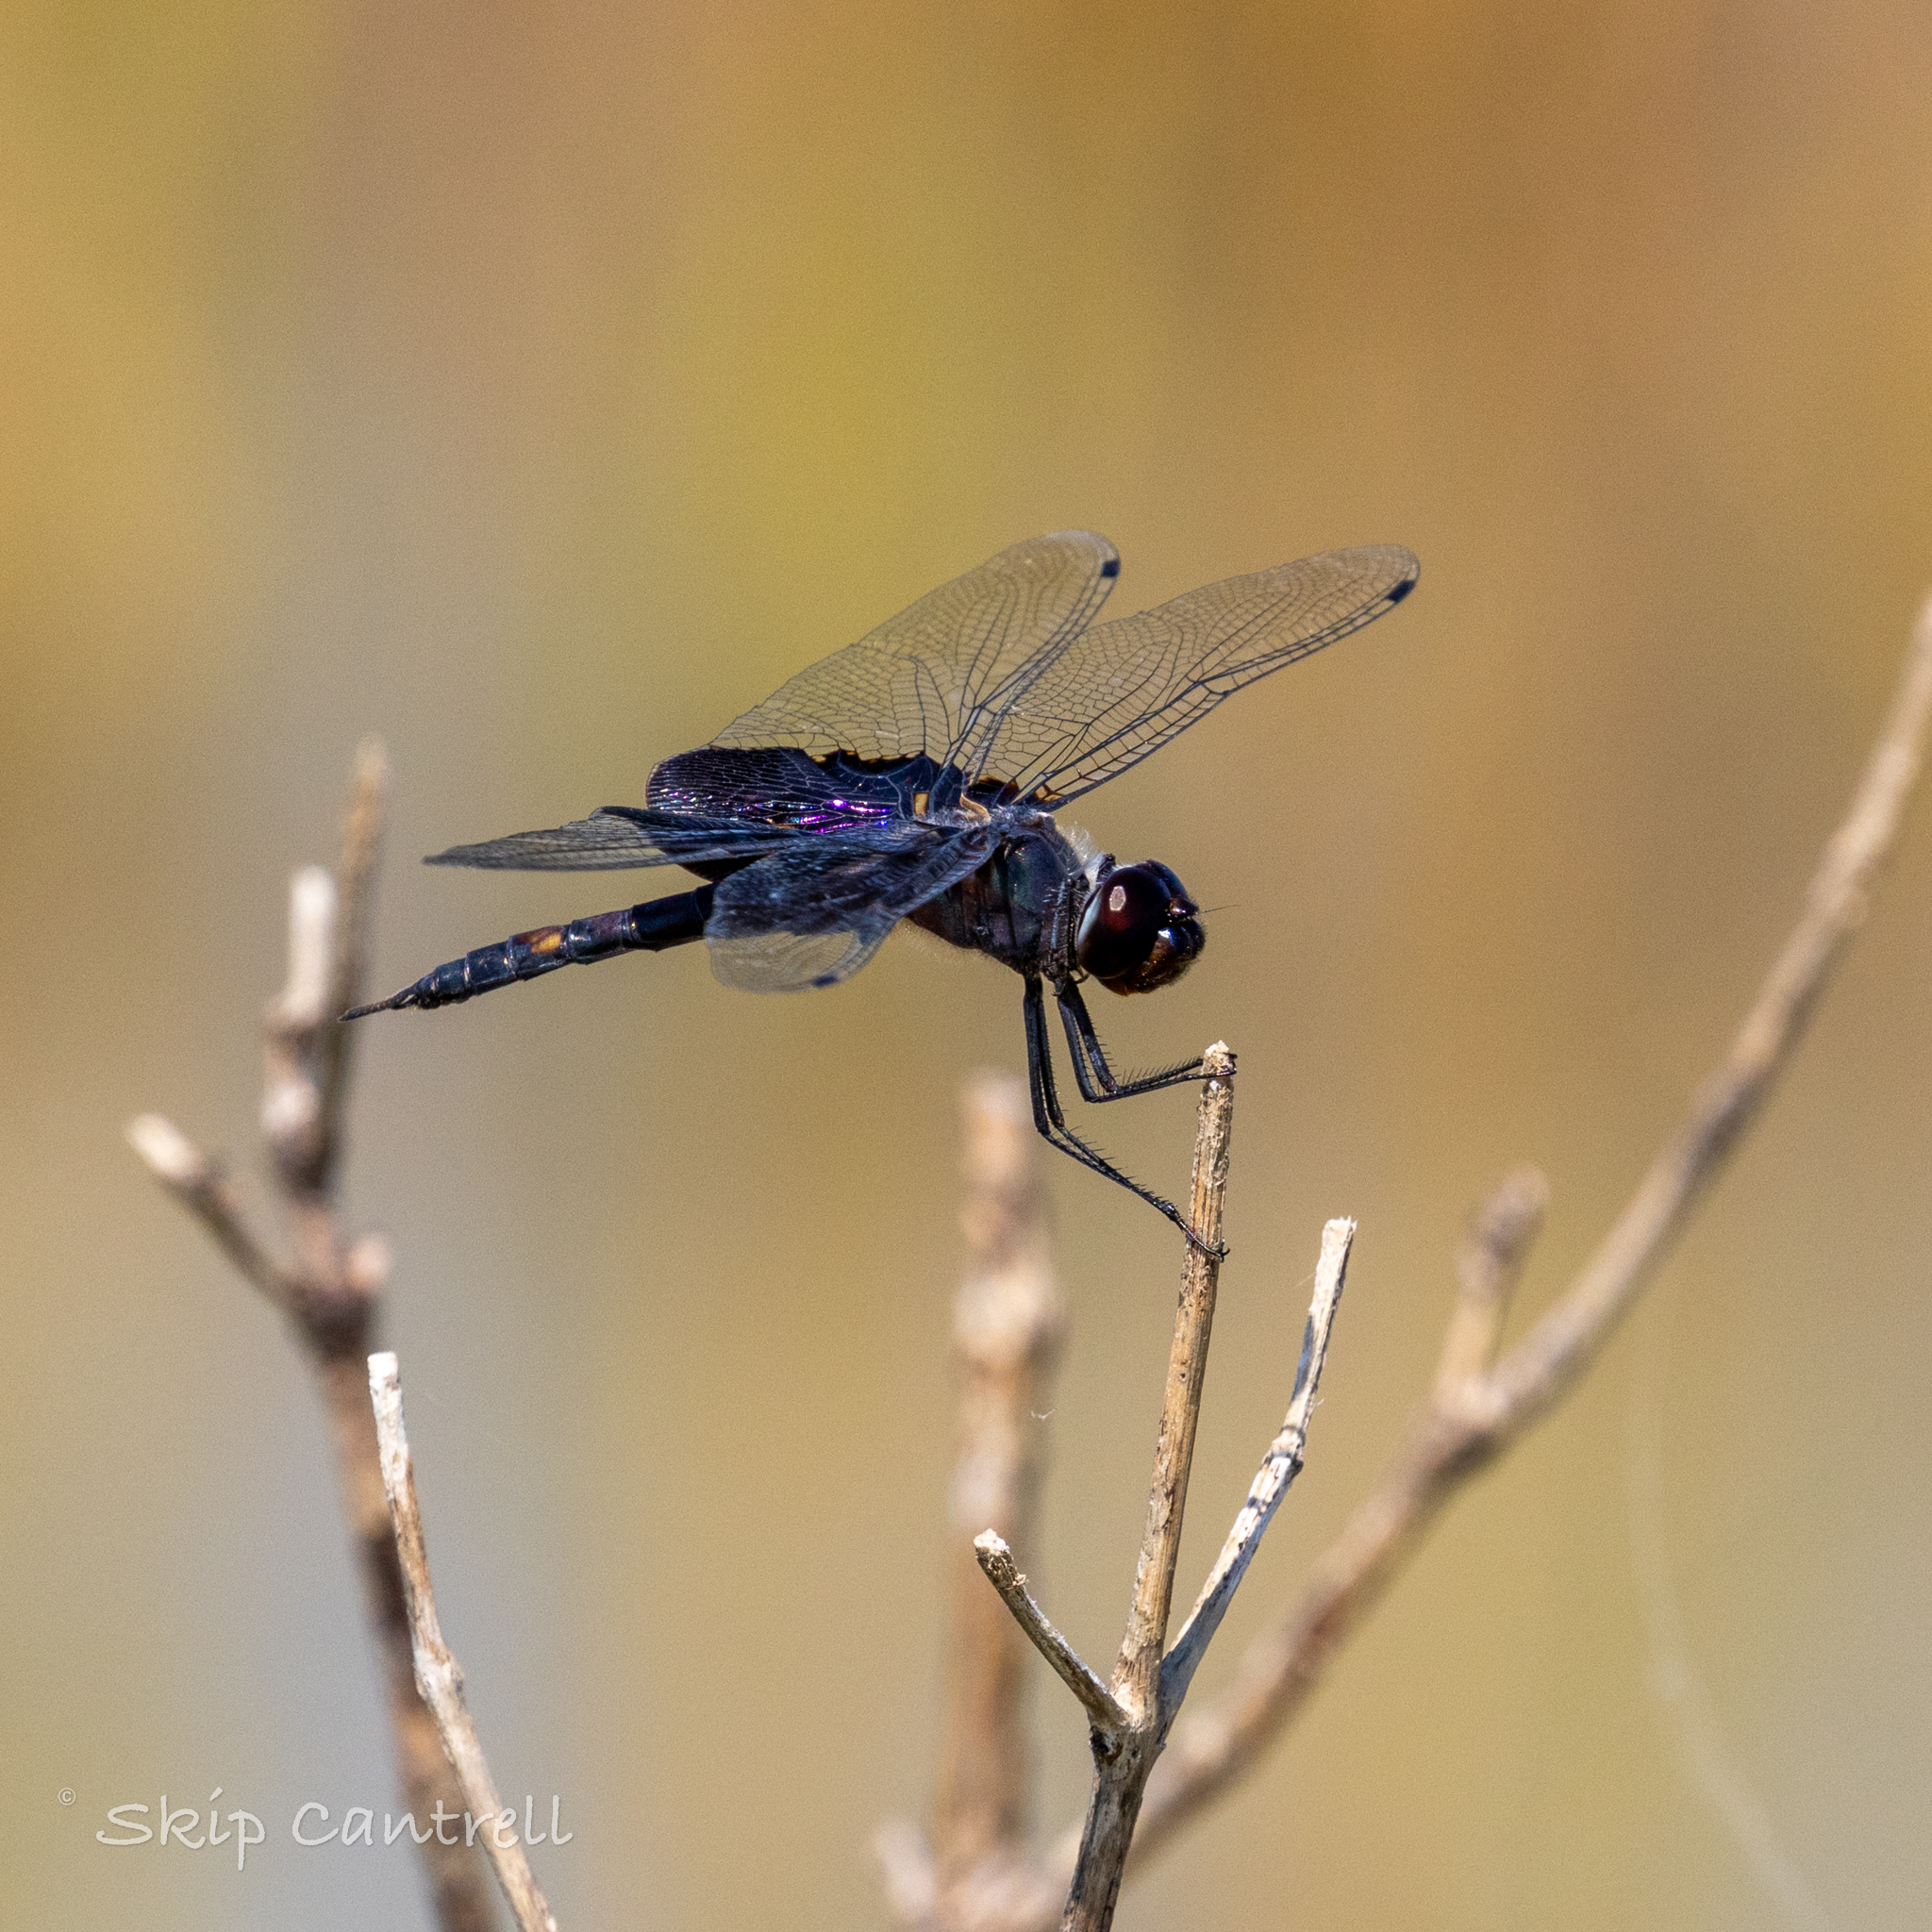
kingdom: Animalia
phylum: Arthropoda
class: Insecta
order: Odonata
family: Libellulidae
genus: Tramea
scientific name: Tramea lacerata
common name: Black saddlebags
